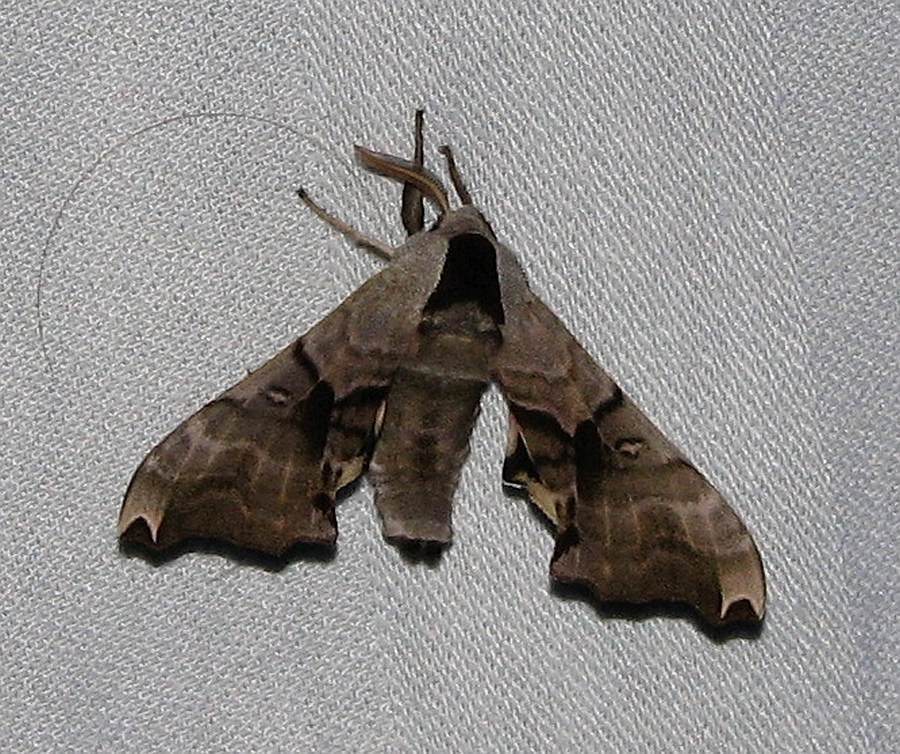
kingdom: Animalia
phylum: Arthropoda
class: Insecta
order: Lepidoptera
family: Sphingidae
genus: Smerinthus
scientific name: Smerinthus jamaicensis
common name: Twin spotted sphinx
